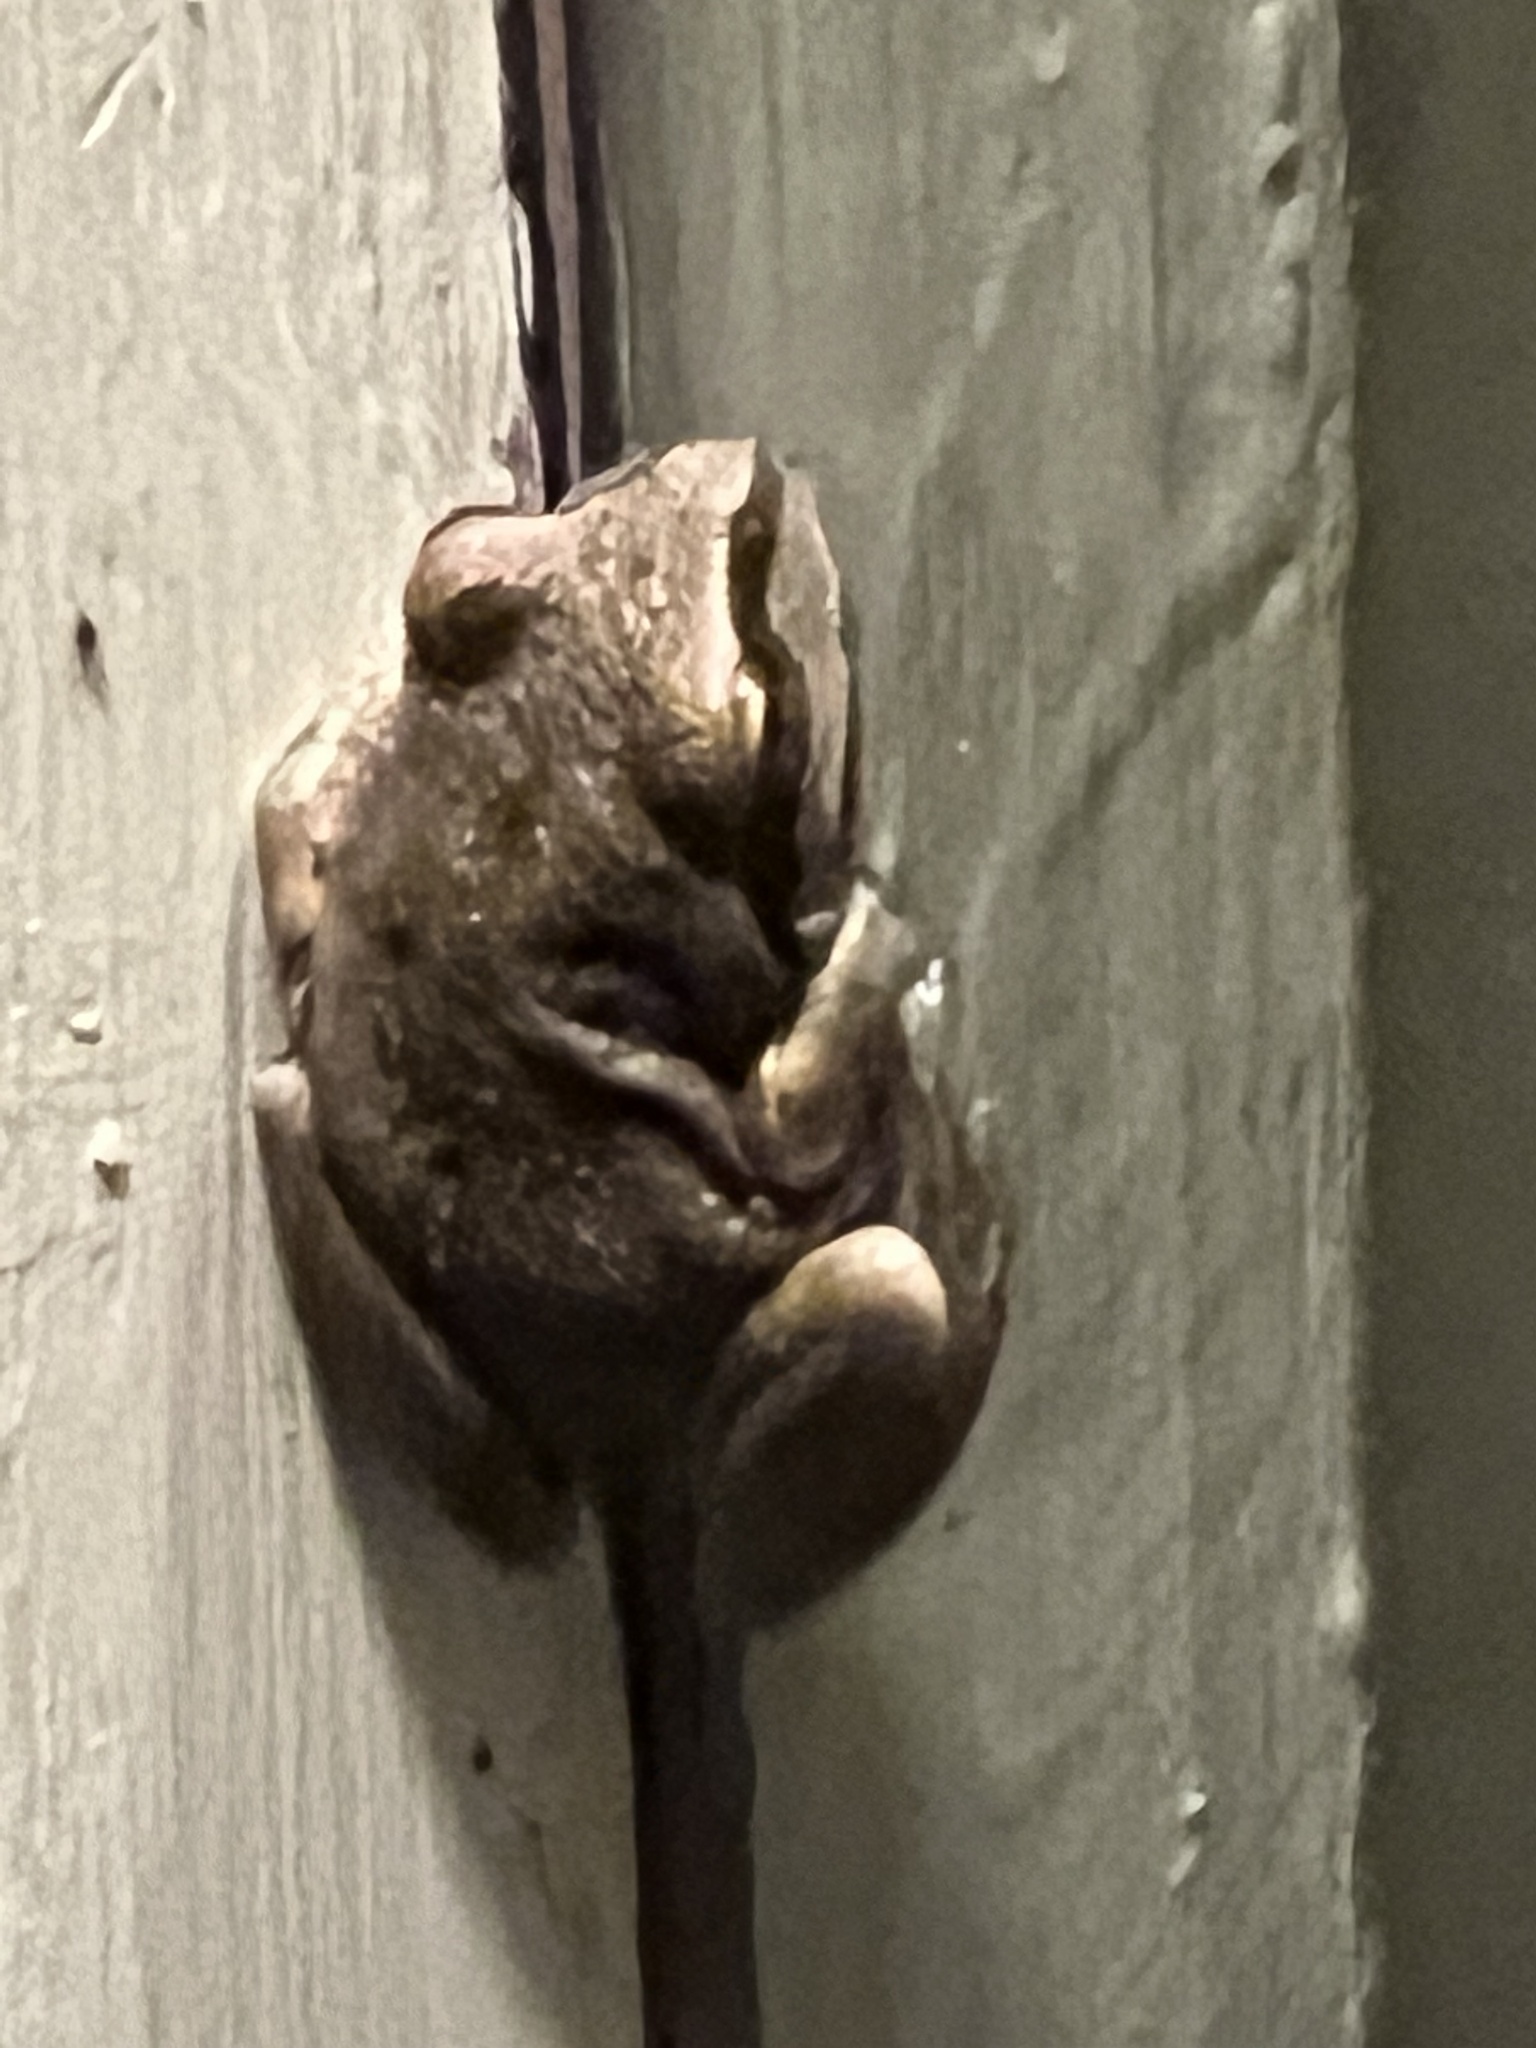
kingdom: Animalia
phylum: Chordata
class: Amphibia
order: Anura
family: Hylidae
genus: Pseudacris
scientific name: Pseudacris regilla
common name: Pacific chorus frog
